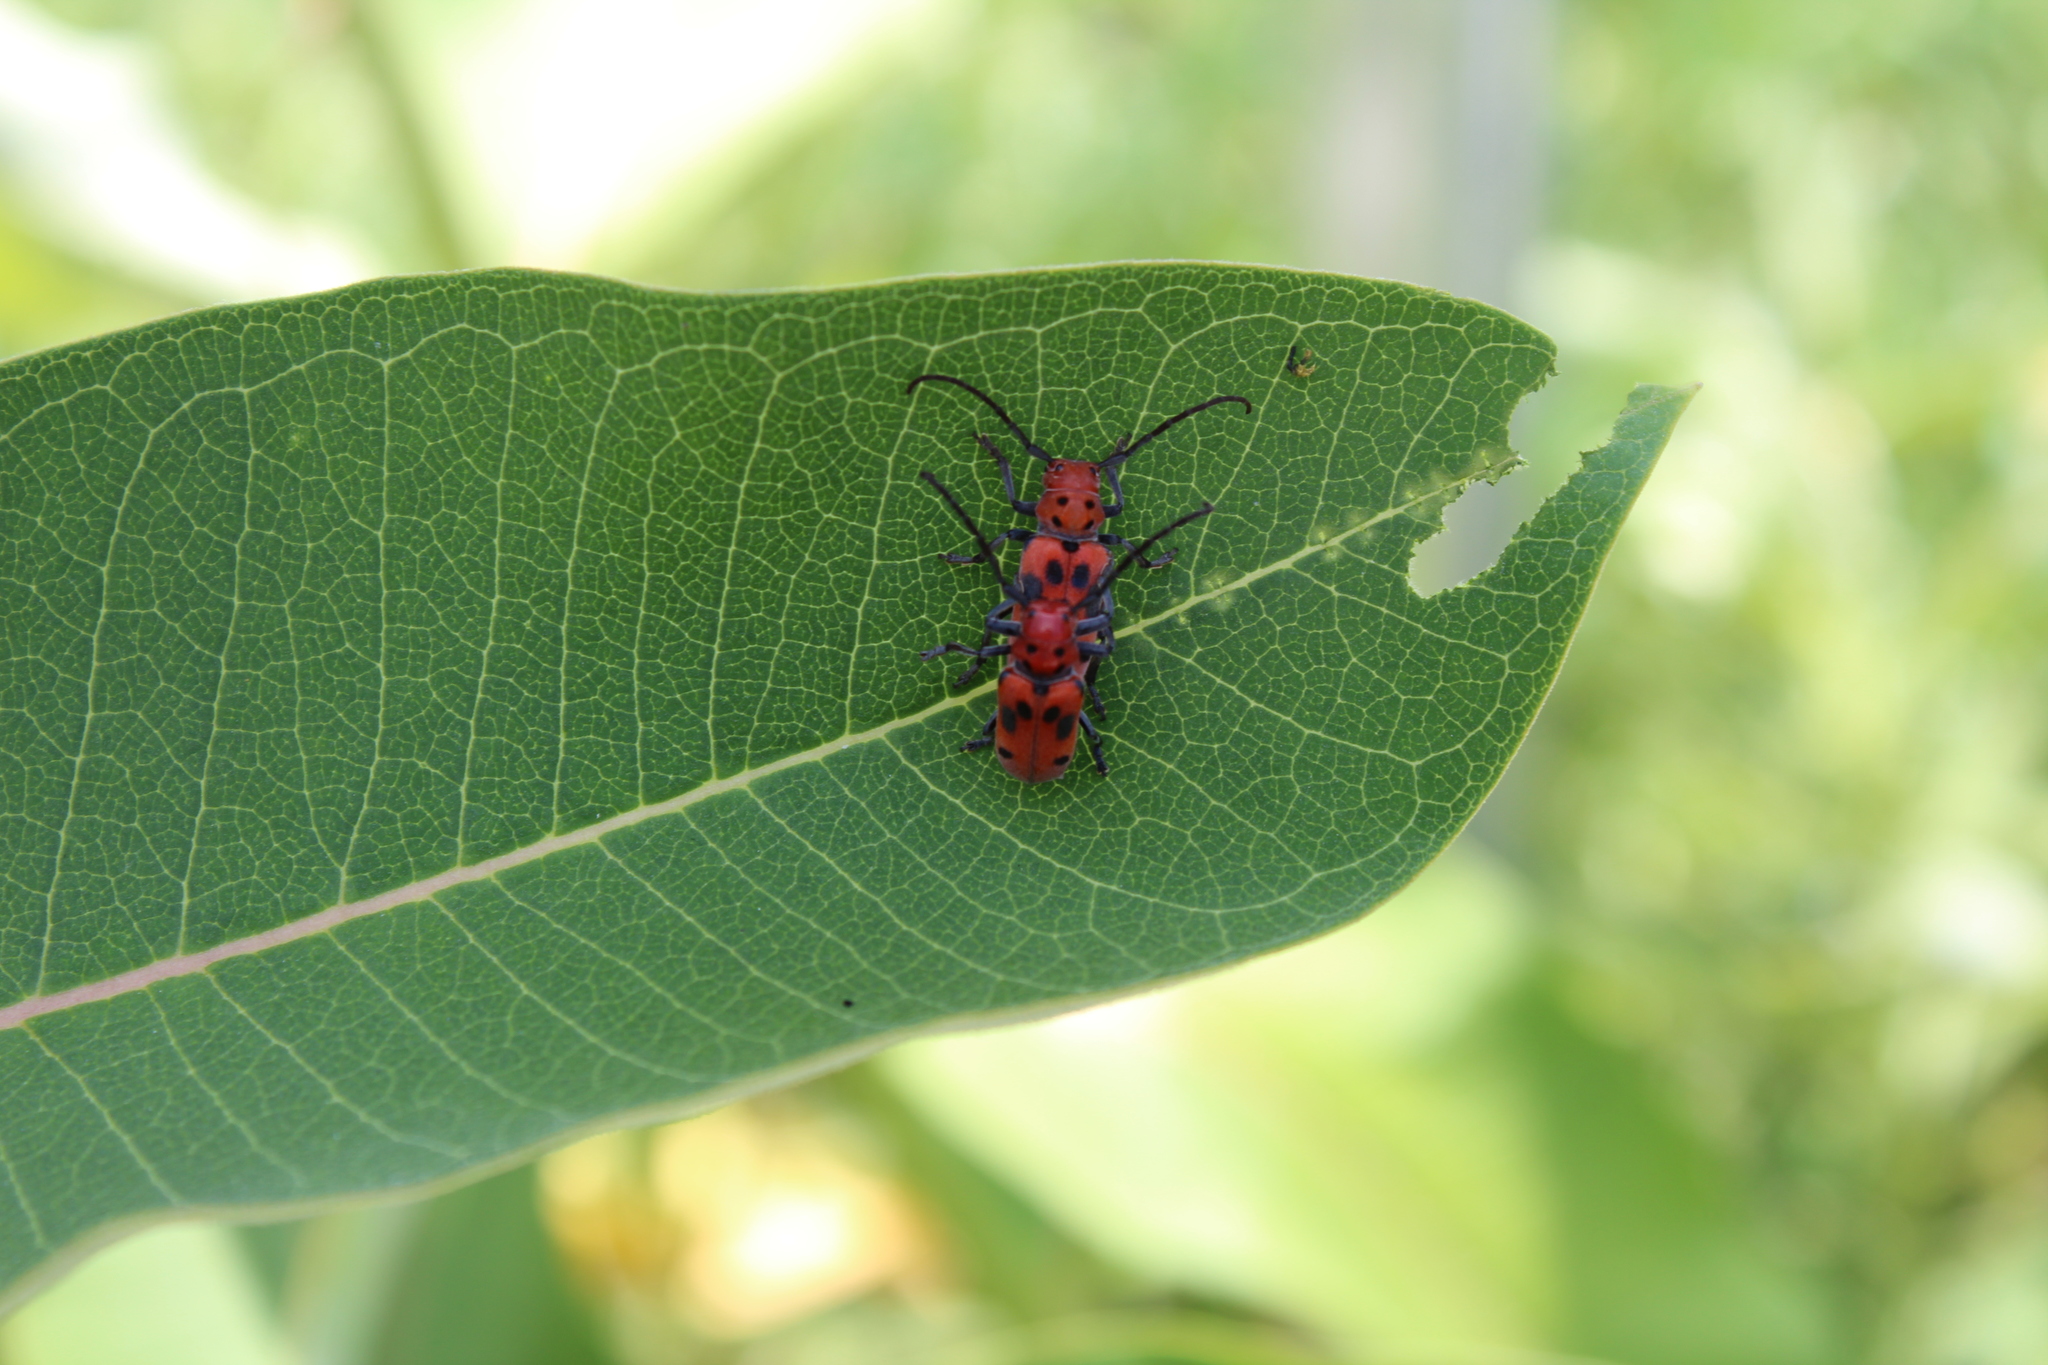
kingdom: Animalia
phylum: Arthropoda
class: Insecta
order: Coleoptera
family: Cerambycidae
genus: Tetraopes
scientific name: Tetraopes tetrophthalmus
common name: Red milkweed beetle
